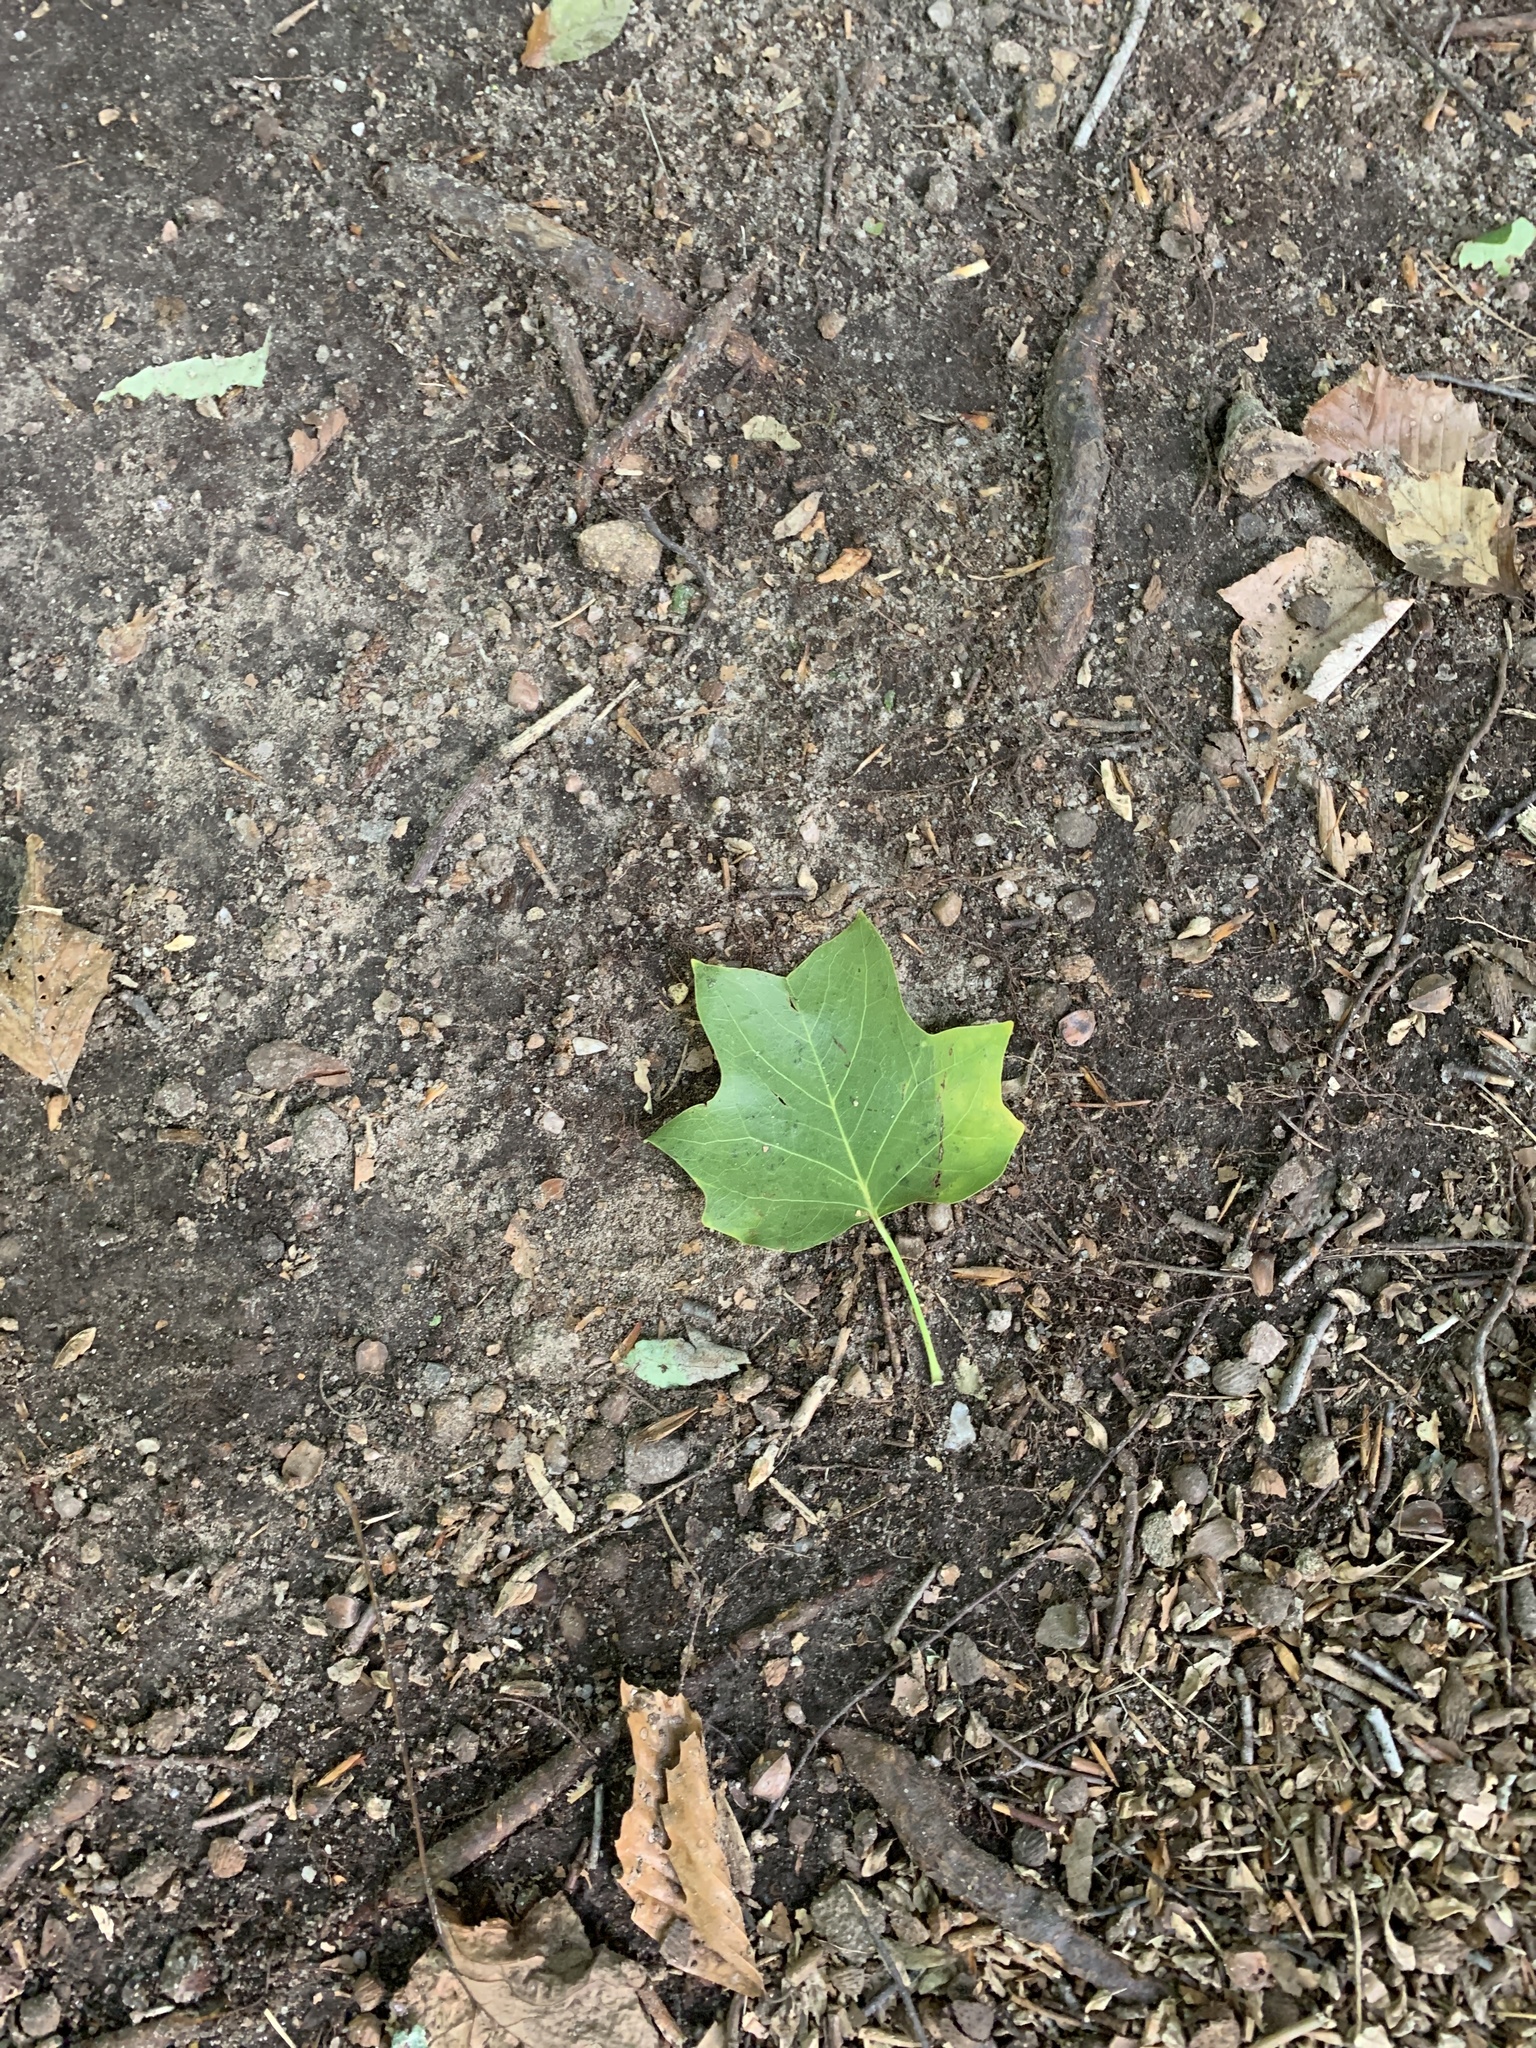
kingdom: Plantae
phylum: Tracheophyta
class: Magnoliopsida
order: Magnoliales
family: Magnoliaceae
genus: Liriodendron
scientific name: Liriodendron tulipifera
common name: Tulip tree
